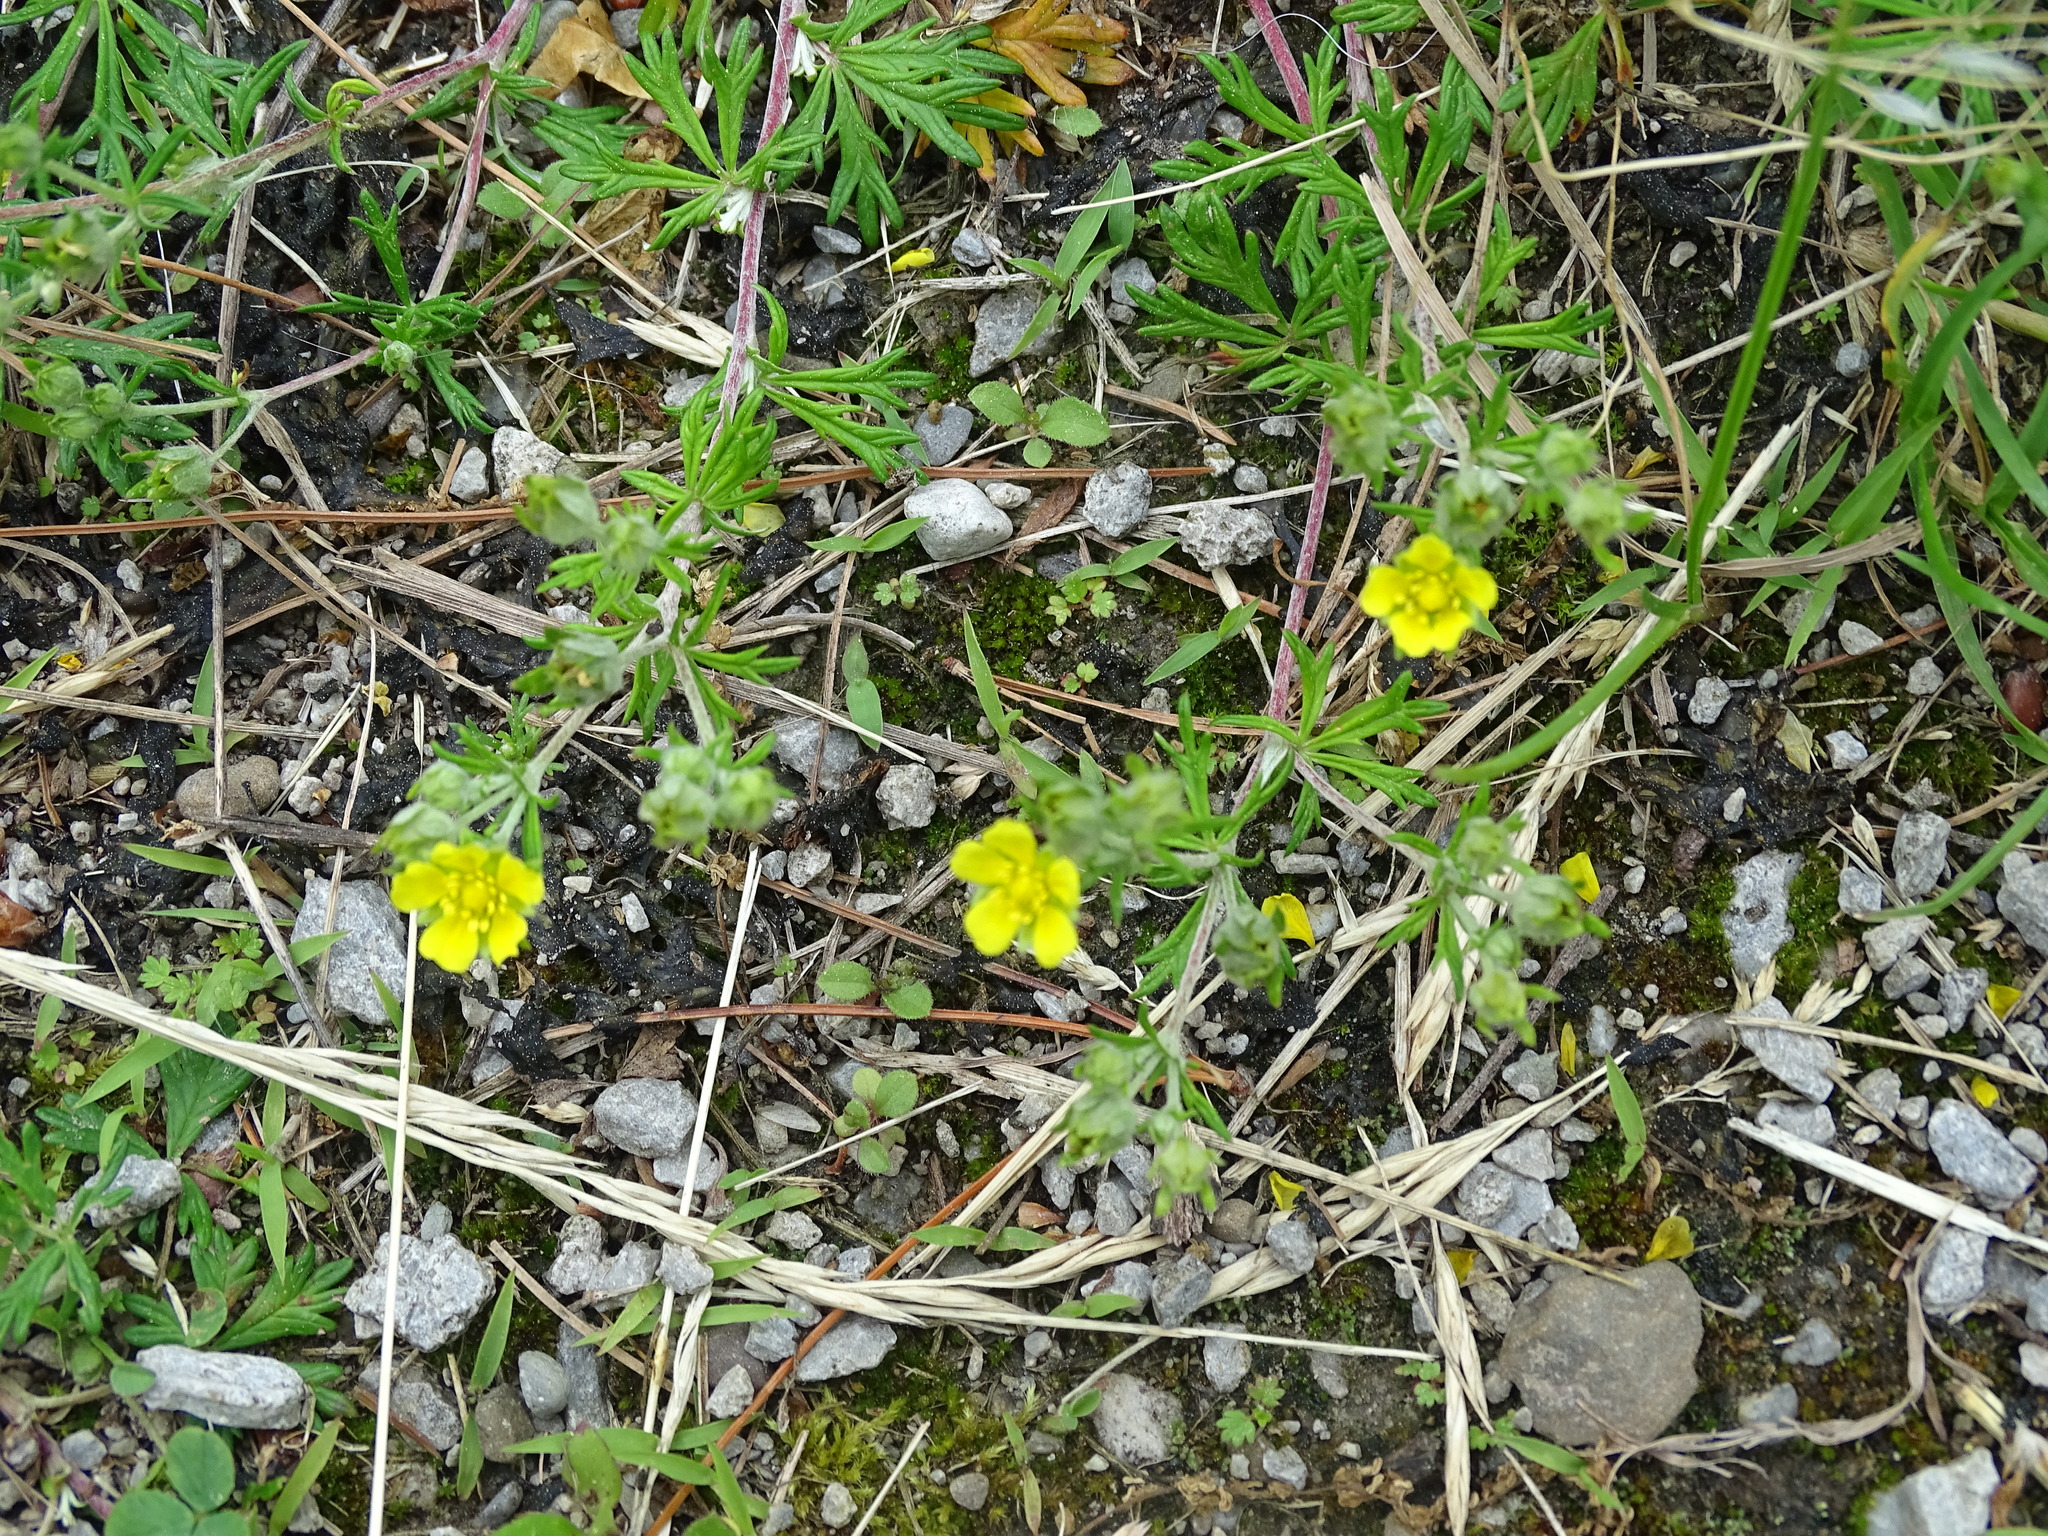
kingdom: Plantae
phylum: Tracheophyta
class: Magnoliopsida
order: Rosales
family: Rosaceae
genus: Potentilla
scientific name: Potentilla argentea
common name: Hoary cinquefoil
